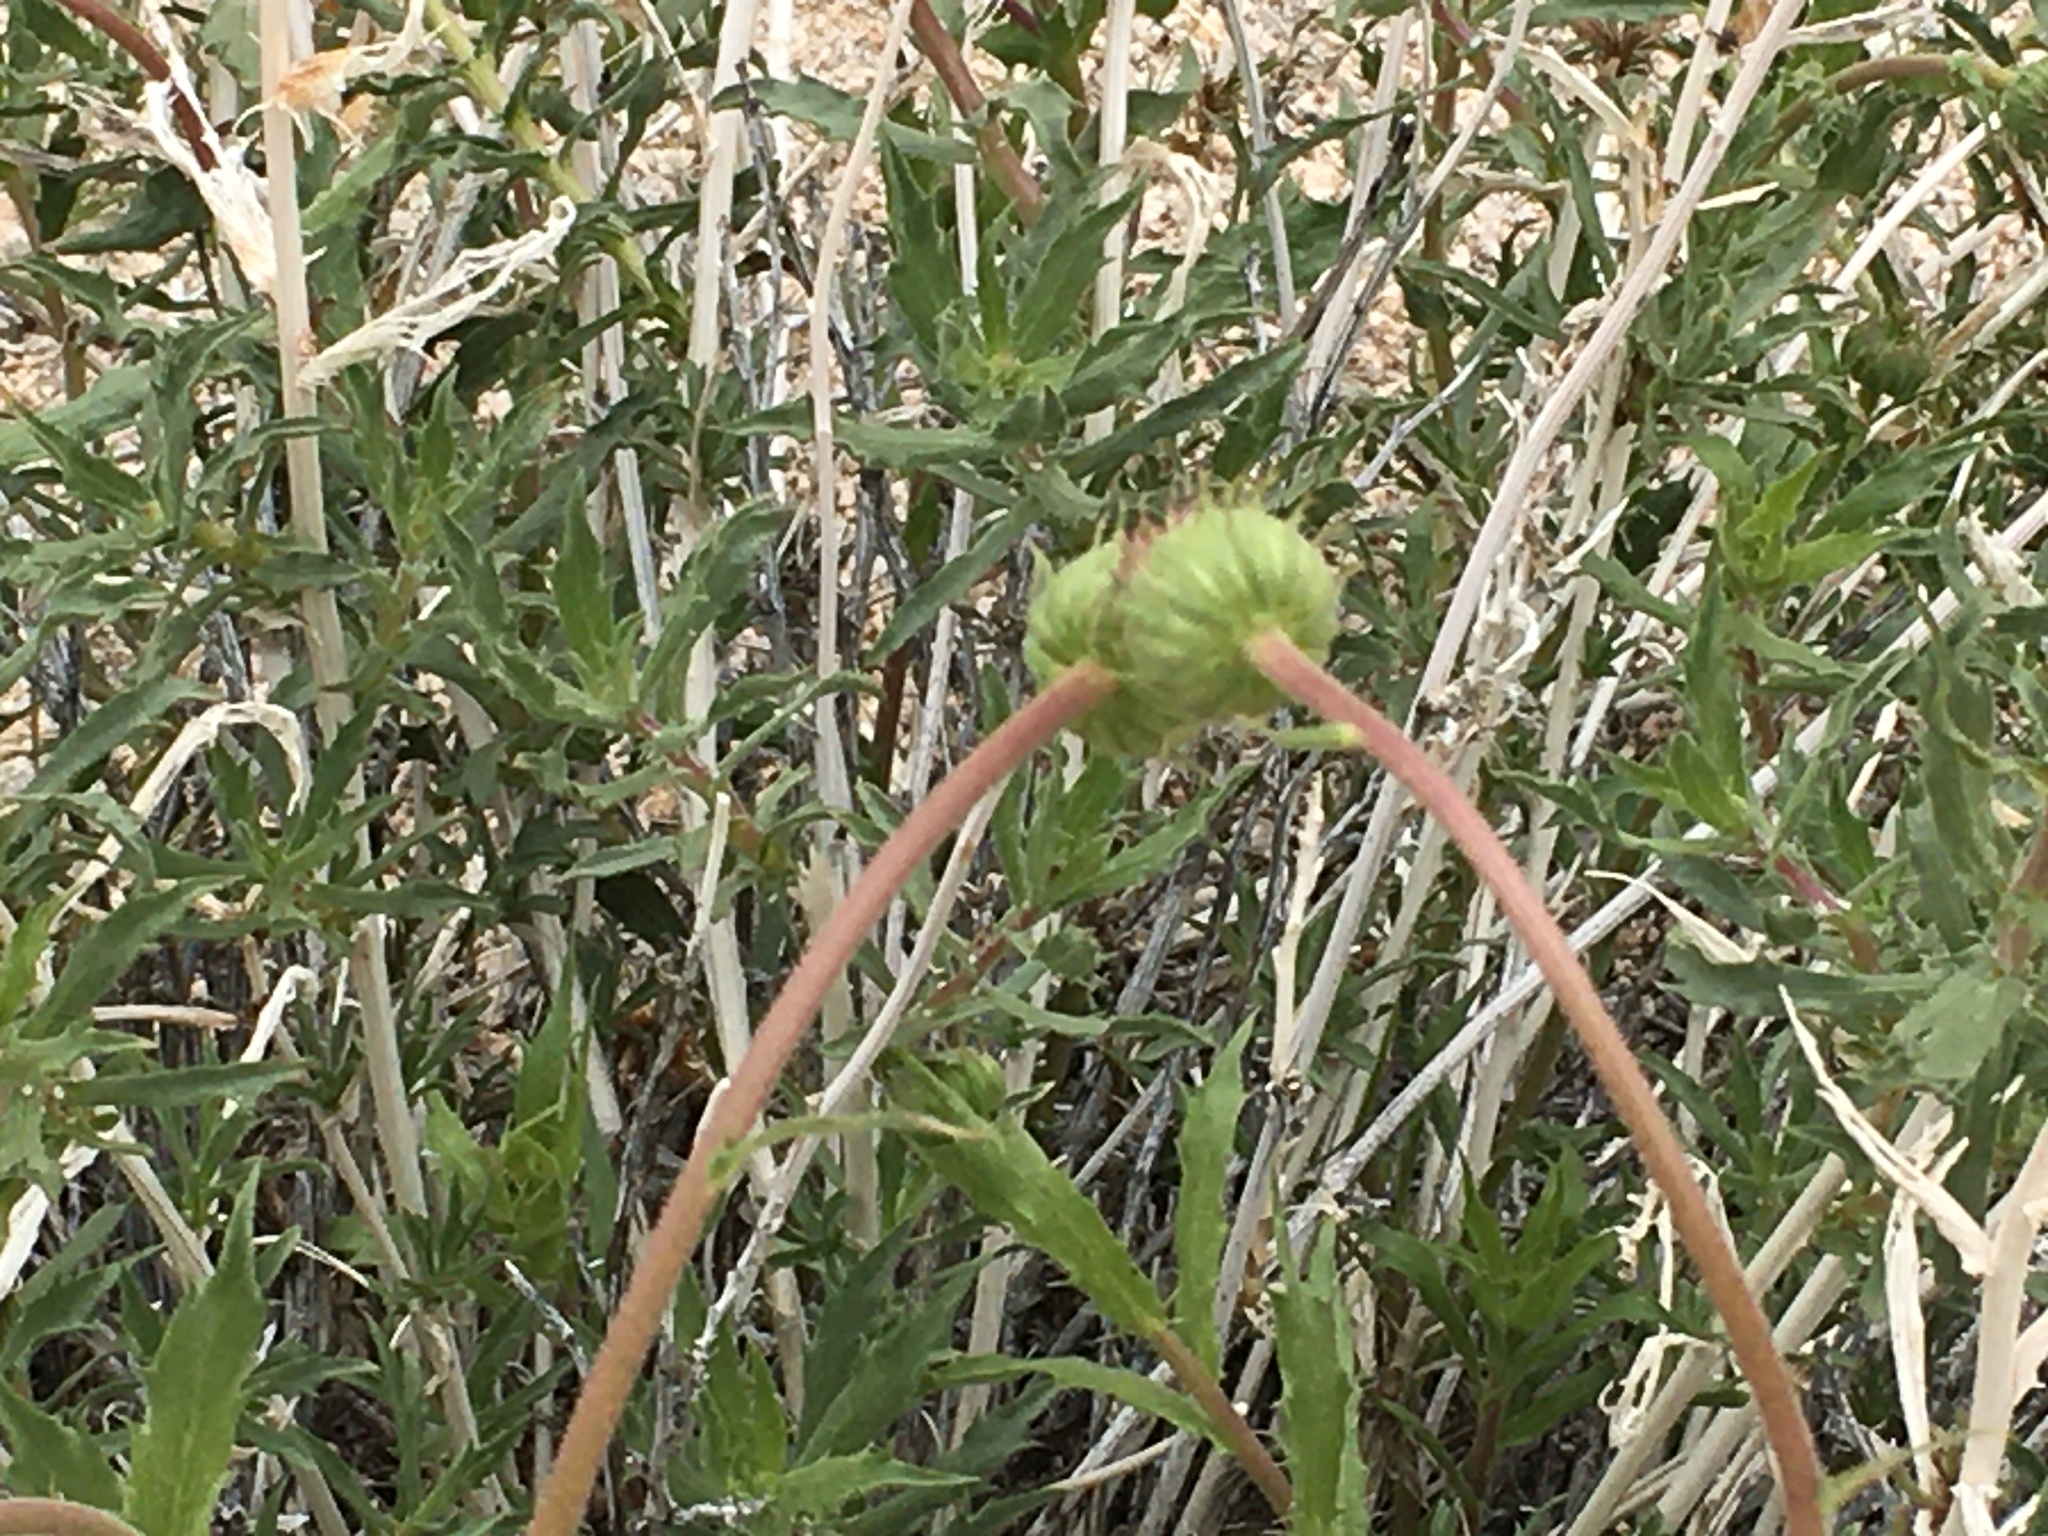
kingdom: Plantae
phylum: Tracheophyta
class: Magnoliopsida
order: Asterales
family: Asteraceae
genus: Xylorhiza
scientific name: Xylorhiza tortifolia
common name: Hurt-leaf woody-aster
